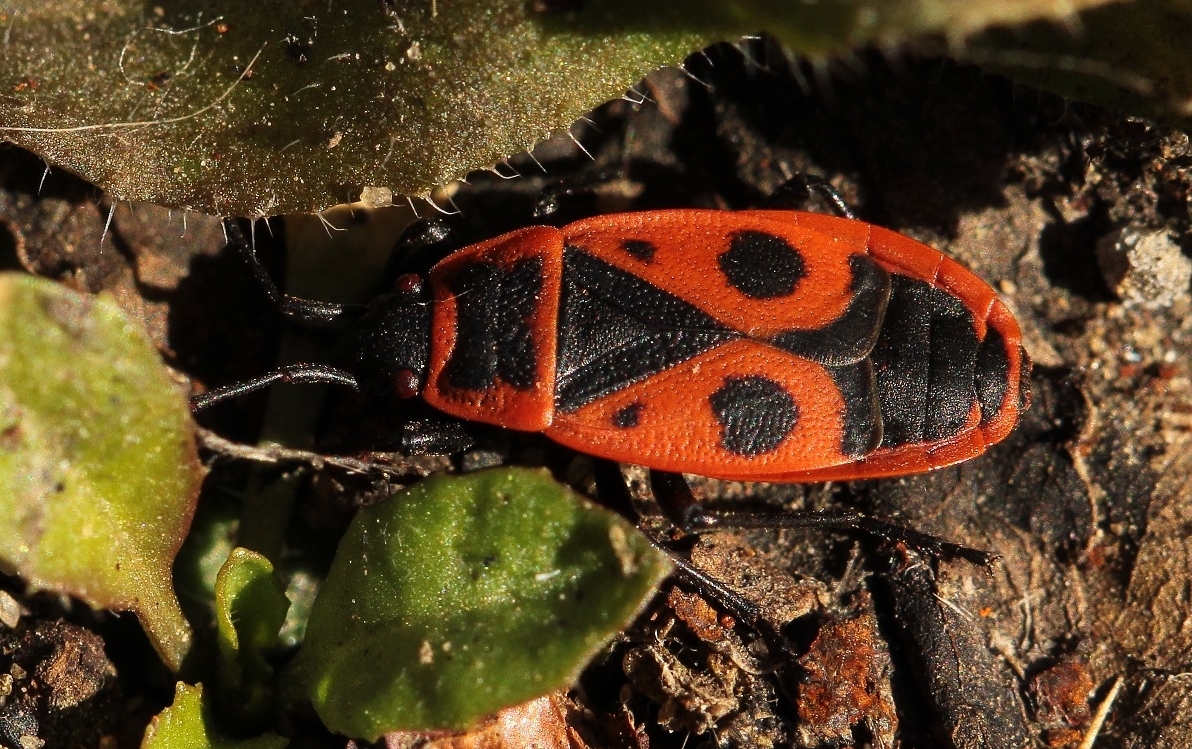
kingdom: Animalia
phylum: Arthropoda
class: Insecta
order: Hemiptera
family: Pyrrhocoridae
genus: Pyrrhocoris
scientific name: Pyrrhocoris apterus
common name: Firebug
